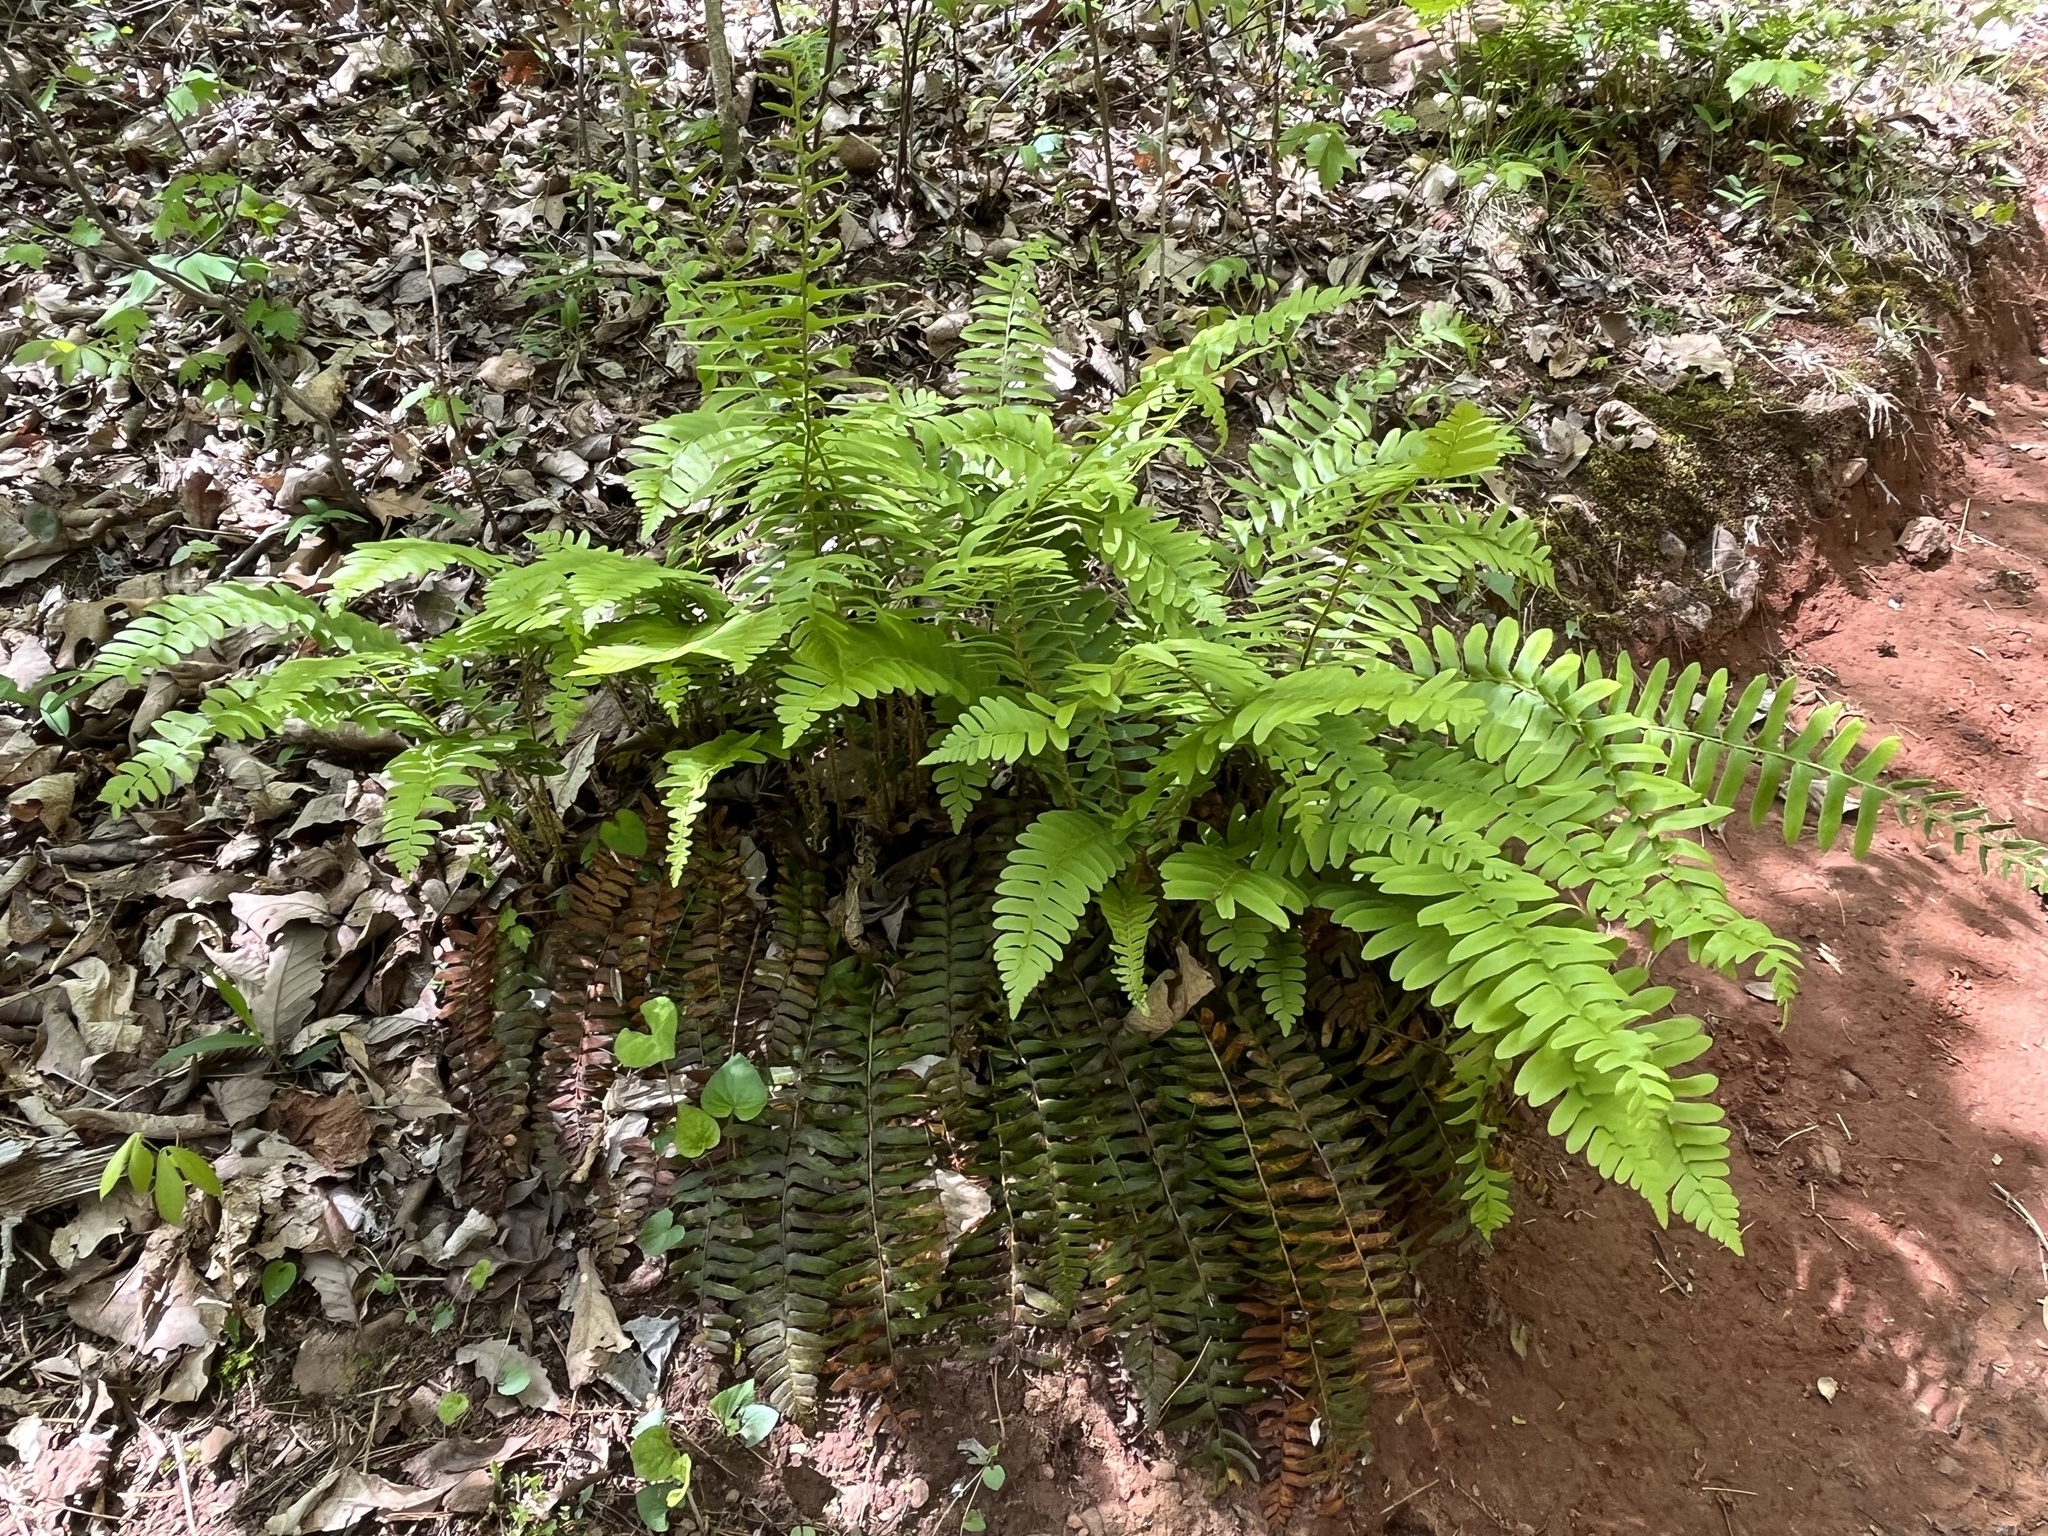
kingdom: Plantae
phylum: Tracheophyta
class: Polypodiopsida
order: Polypodiales
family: Dryopteridaceae
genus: Polystichum
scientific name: Polystichum acrostichoides
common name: Christmas fern
